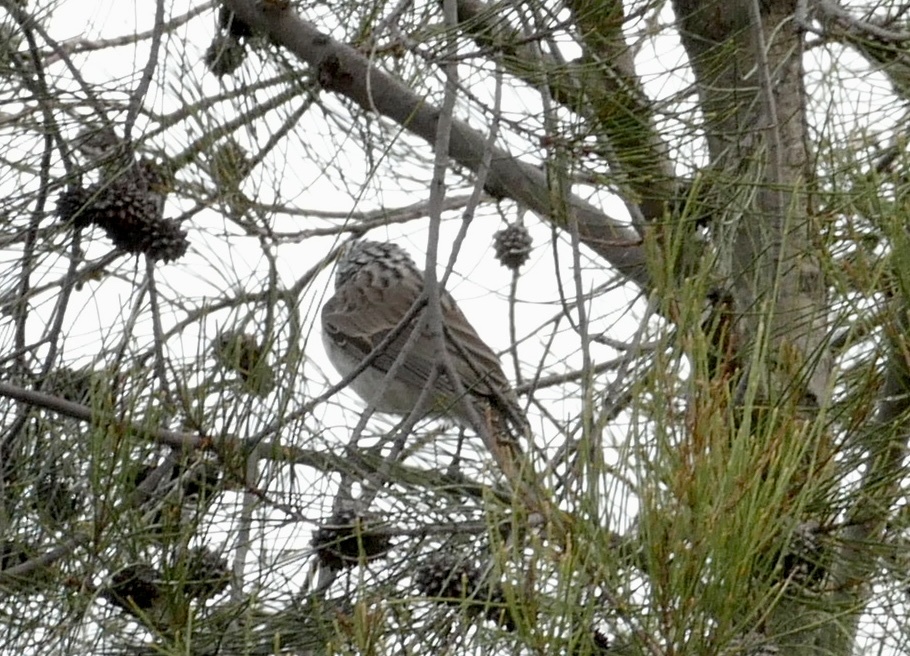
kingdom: Animalia
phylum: Chordata
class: Aves
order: Passeriformes
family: Meliphagidae
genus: Plectorhyncha
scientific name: Plectorhyncha lanceolata
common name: Striped honeyeater
